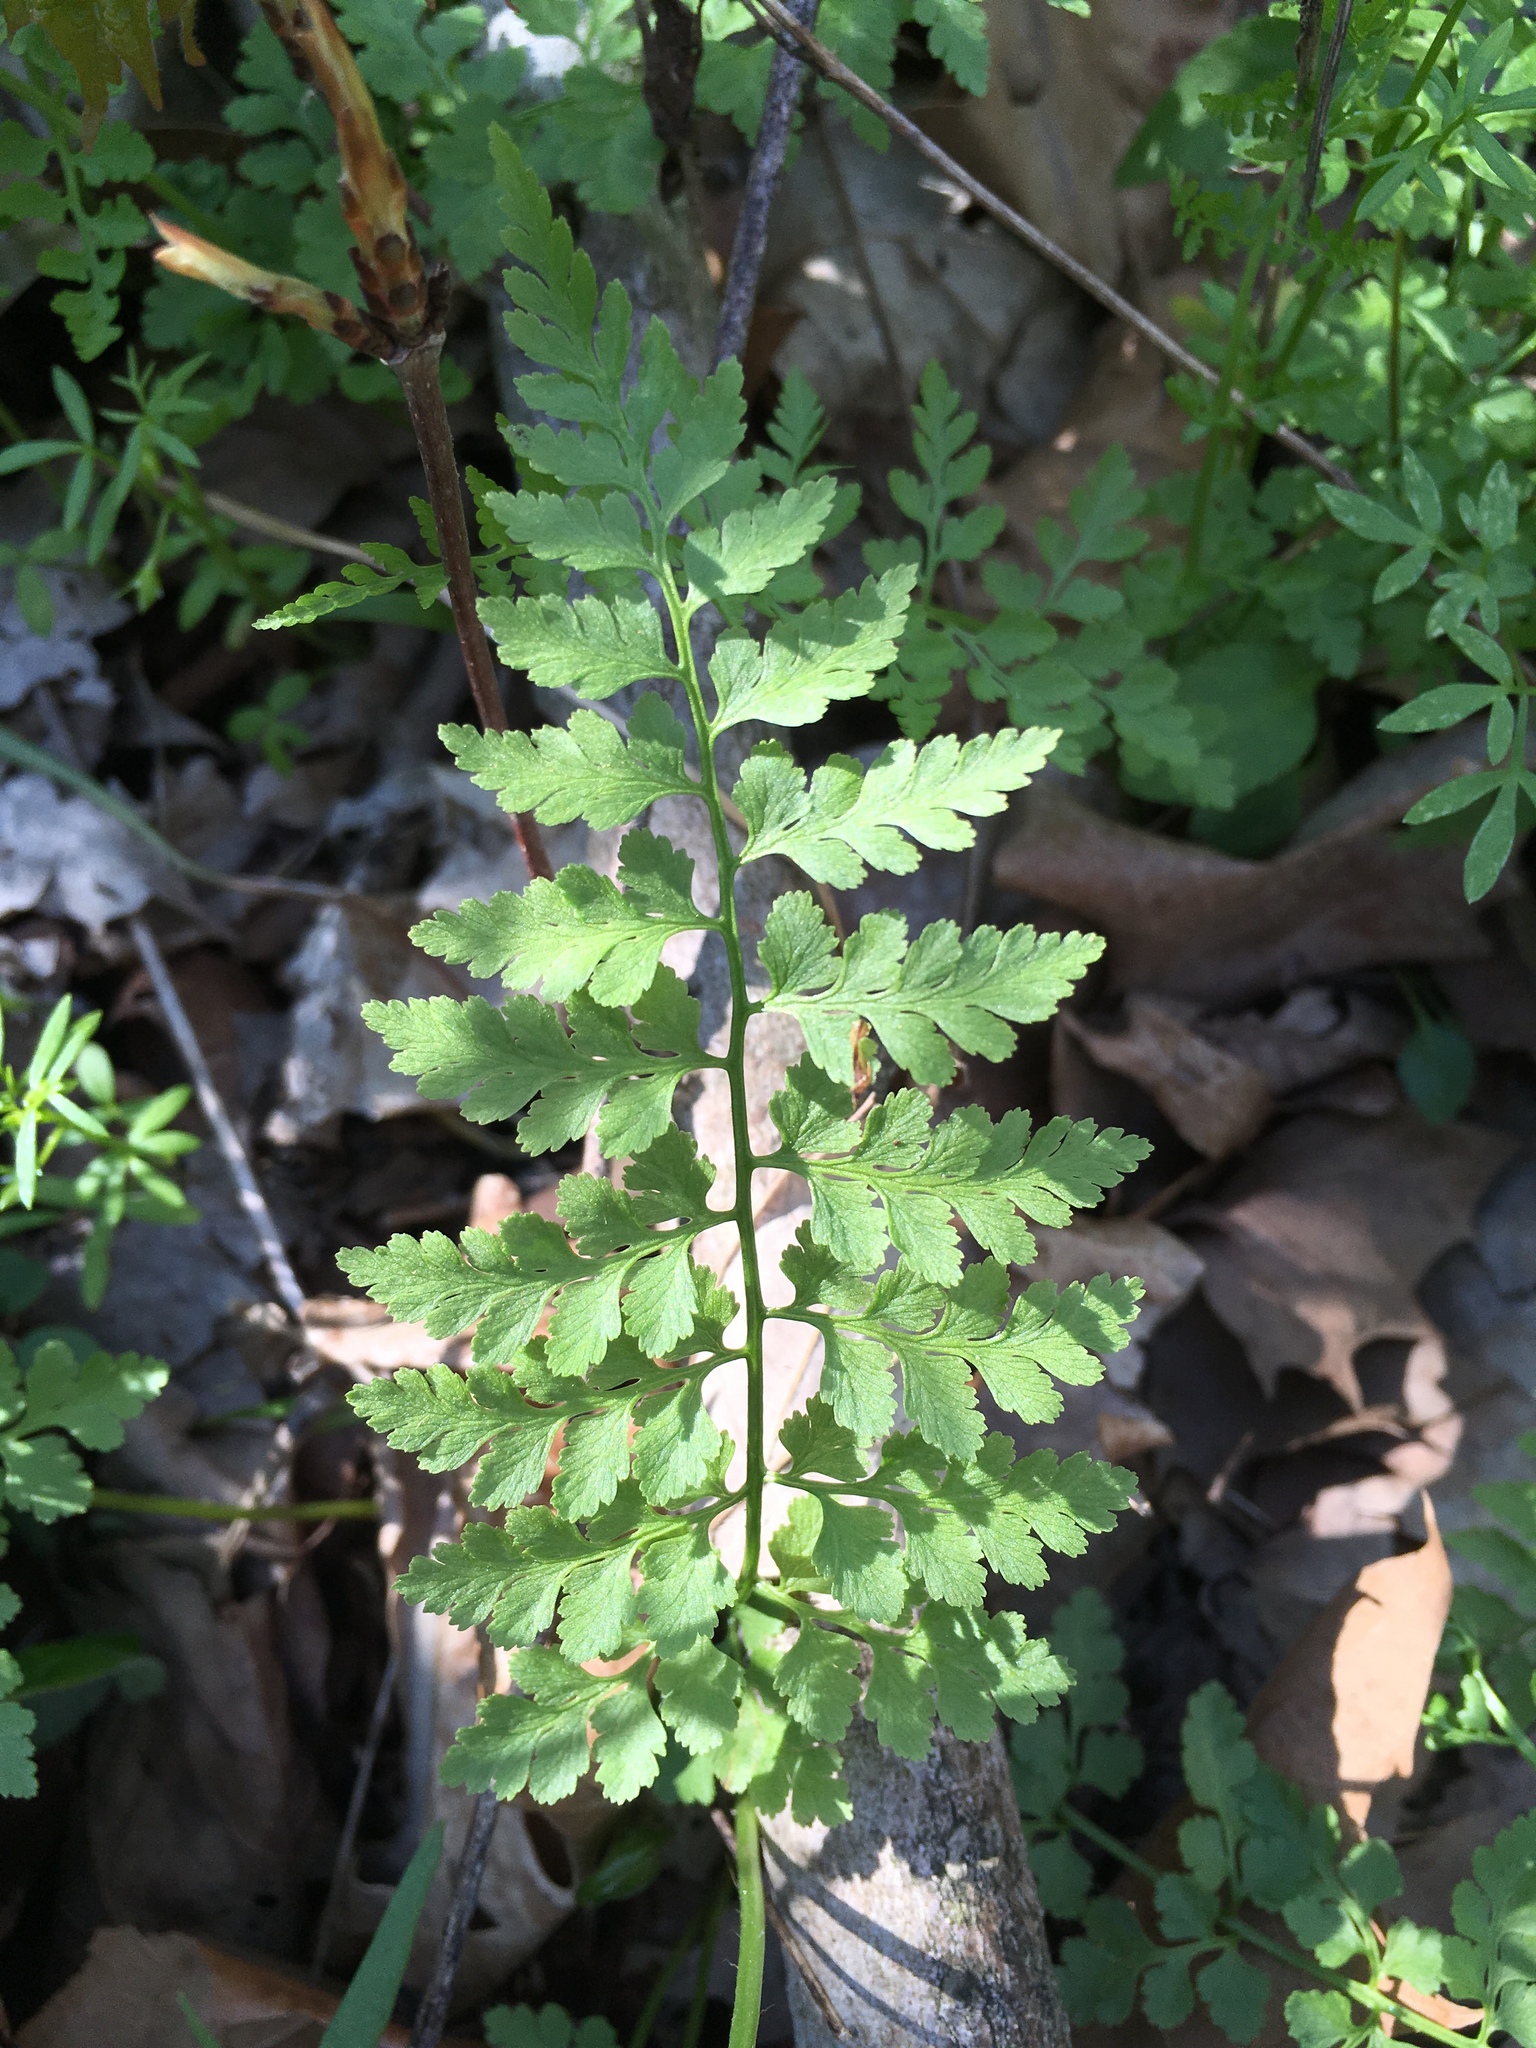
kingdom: Plantae
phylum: Tracheophyta
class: Polypodiopsida
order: Polypodiales
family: Cystopteridaceae
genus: Cystopteris
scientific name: Cystopteris protrusa
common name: Lowland brittle fern
